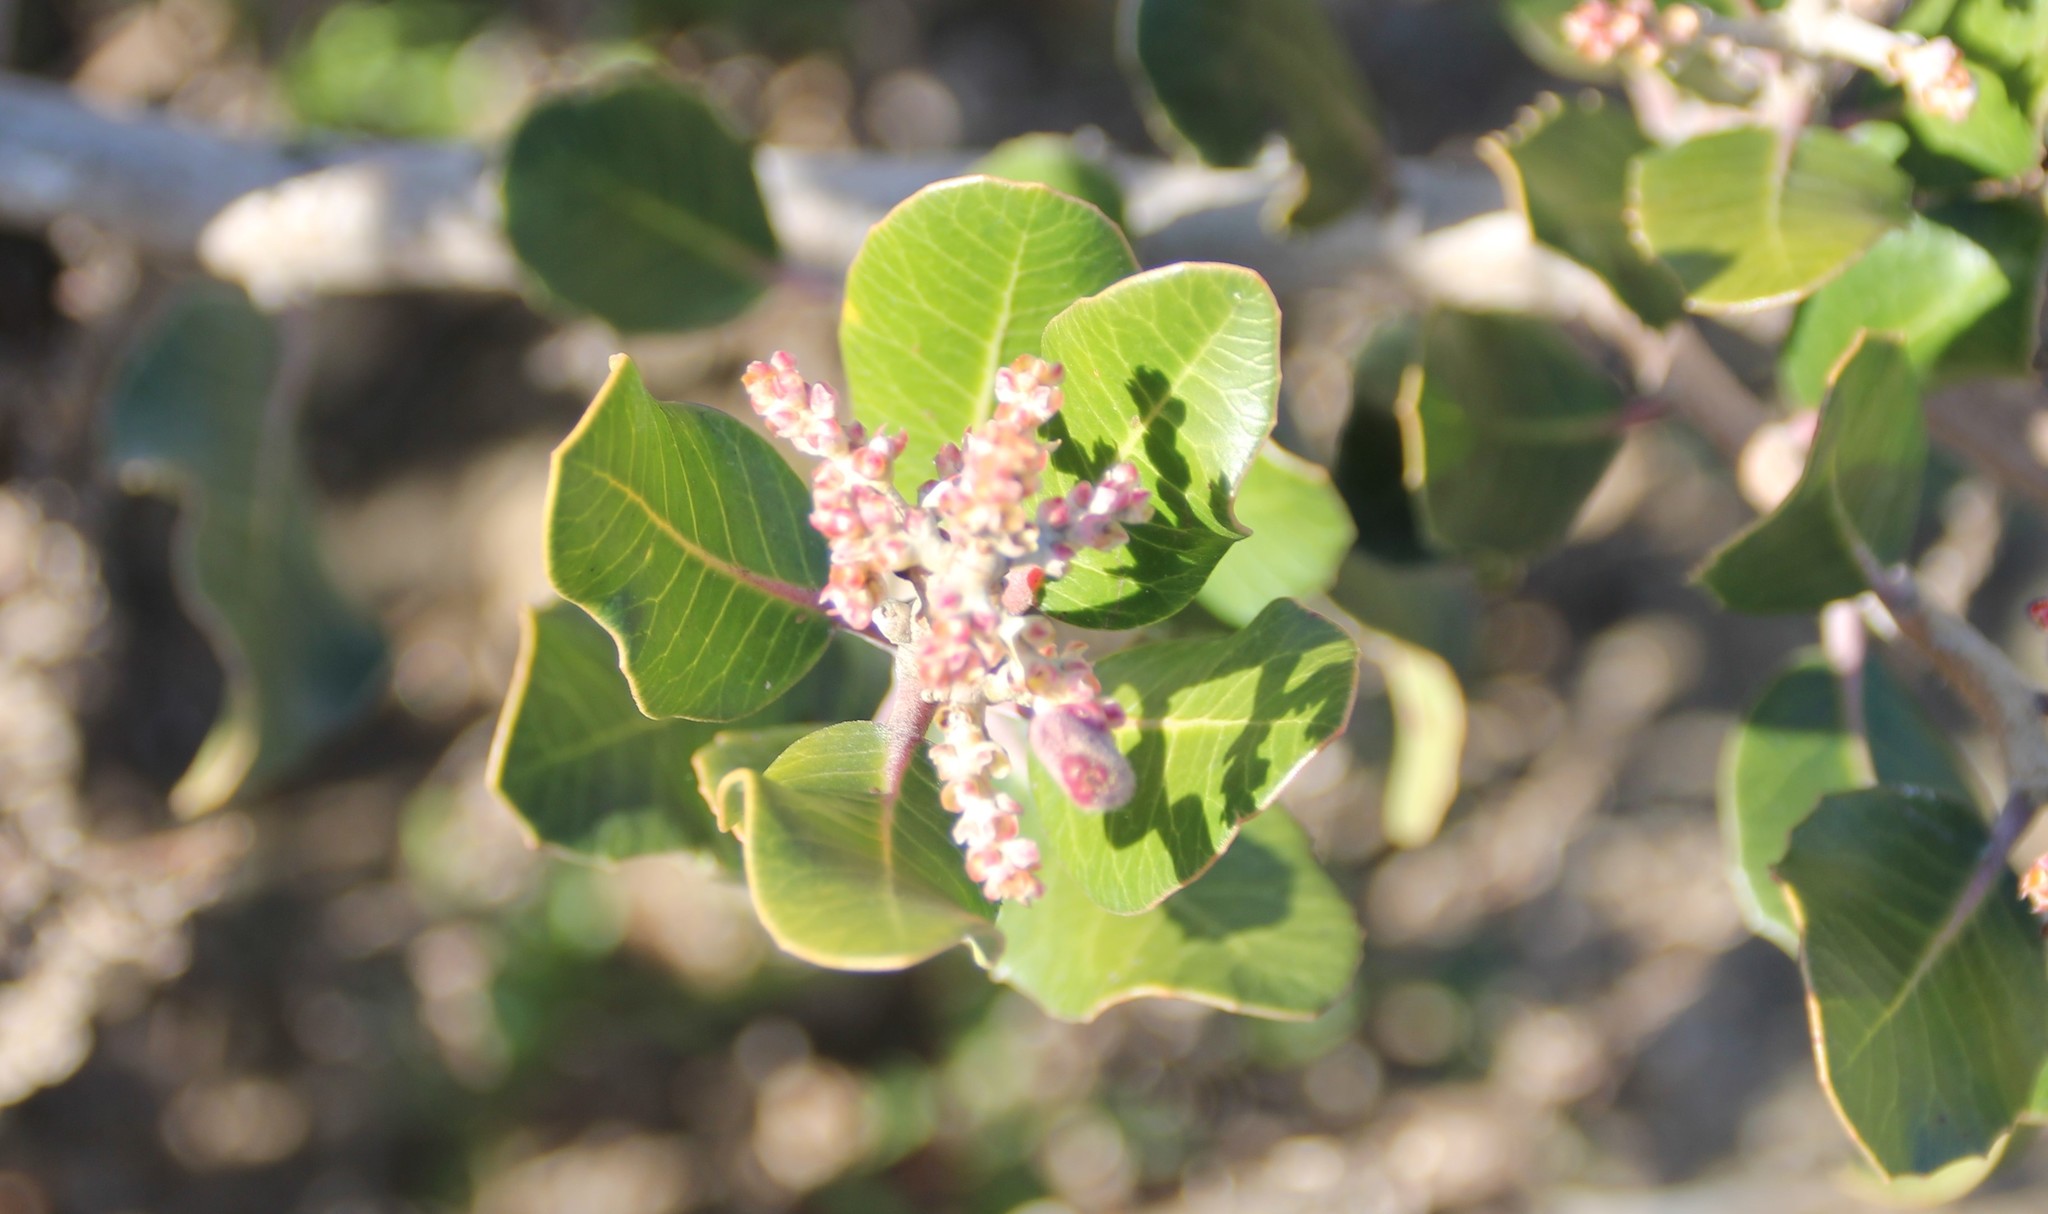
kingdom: Plantae
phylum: Tracheophyta
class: Magnoliopsida
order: Sapindales
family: Anacardiaceae
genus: Rhus
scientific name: Rhus integrifolia
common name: Lemonade sumac
